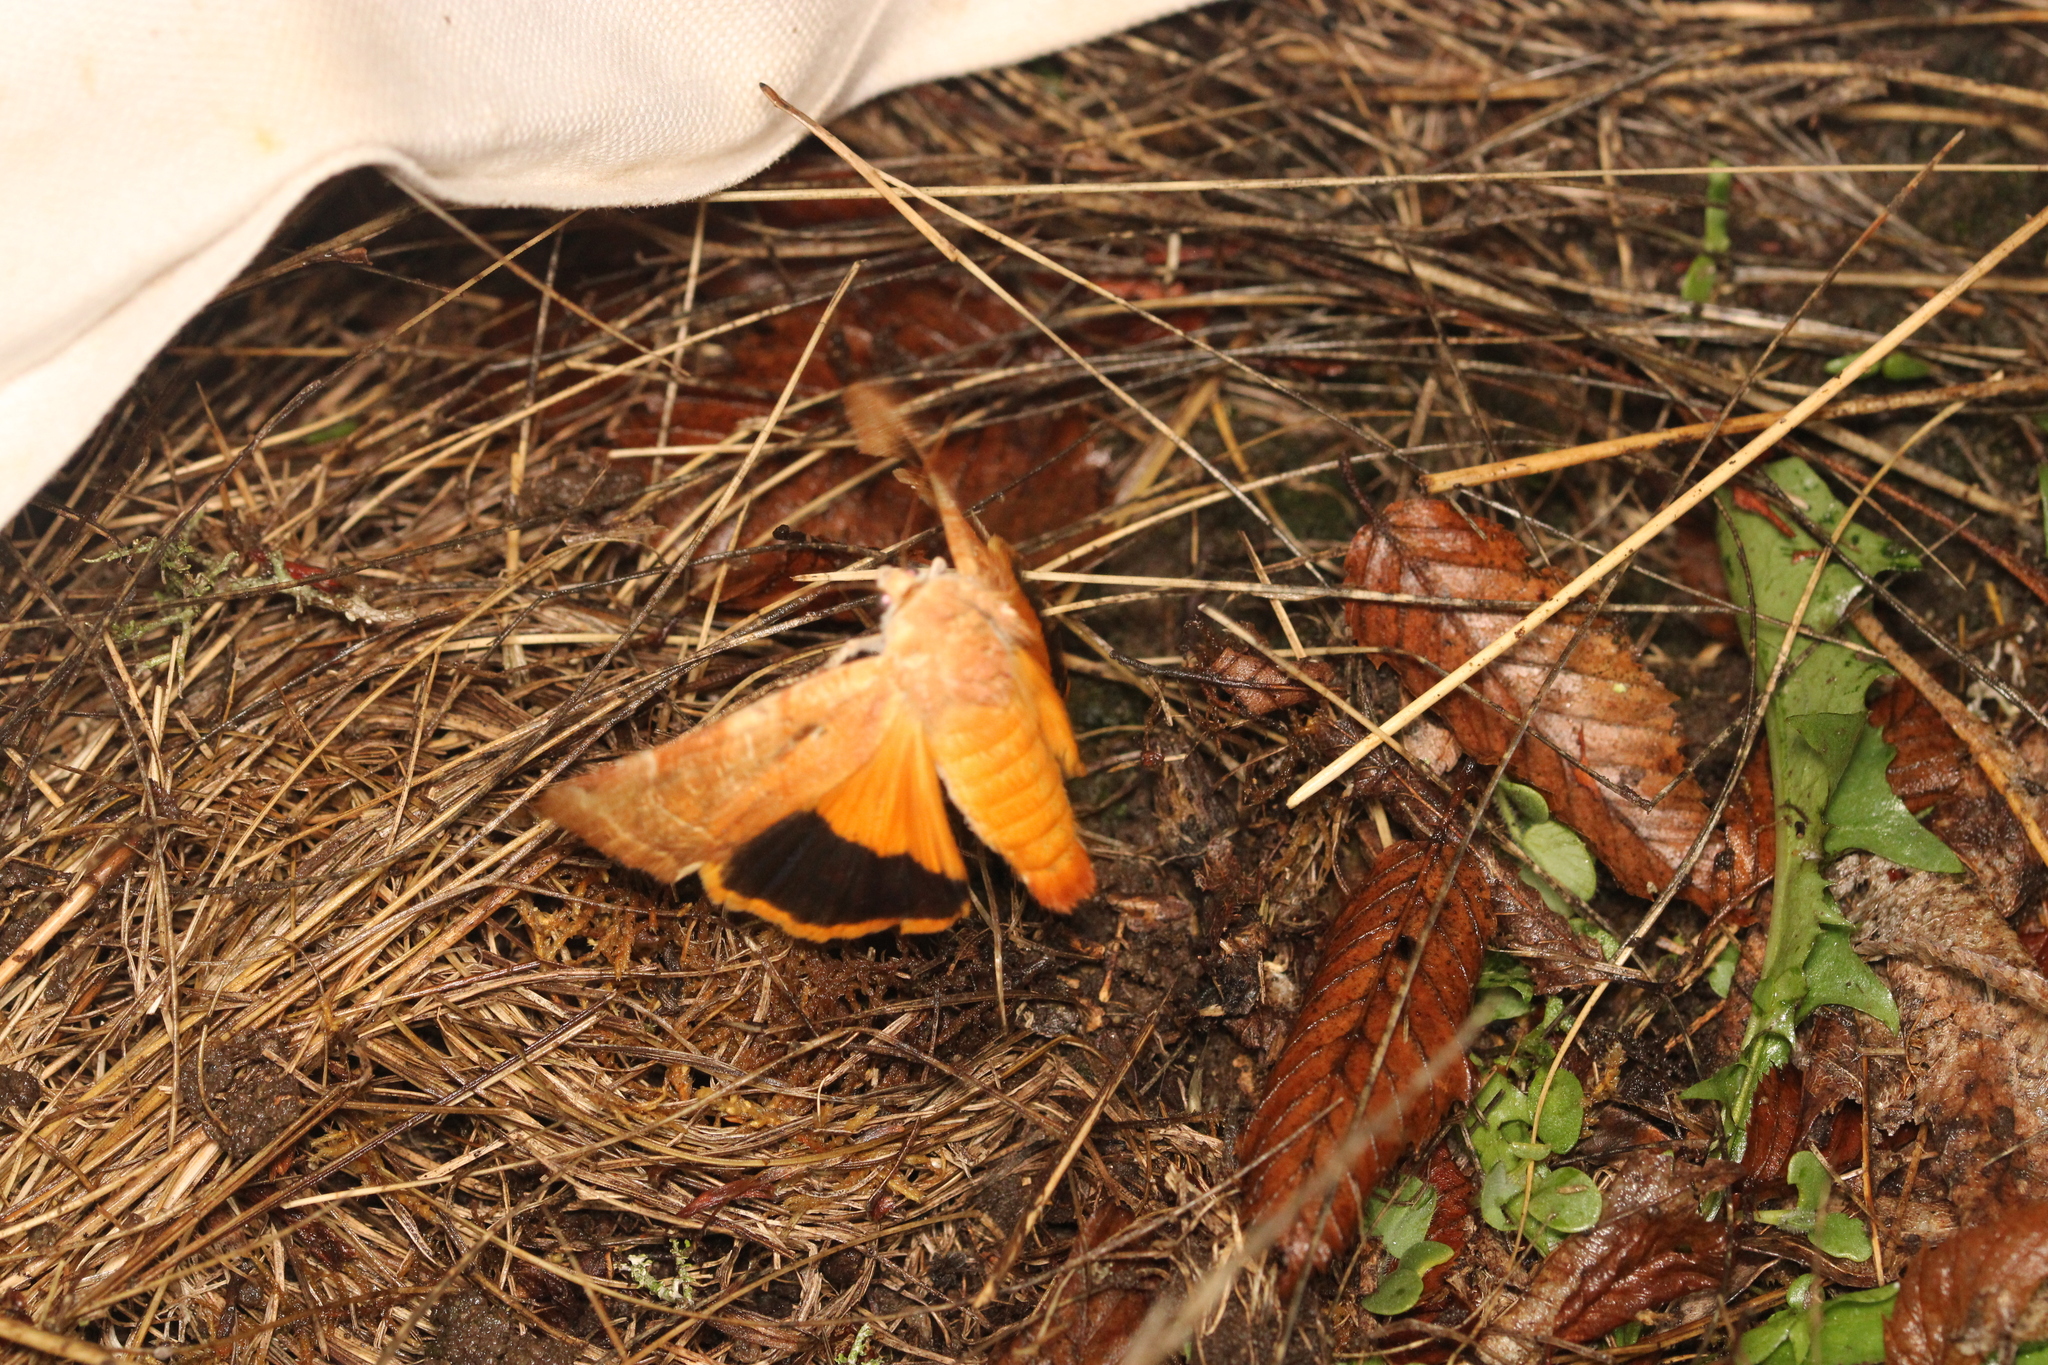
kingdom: Animalia
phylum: Arthropoda
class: Insecta
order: Lepidoptera
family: Noctuidae
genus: Noctua
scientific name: Noctua fimbriata
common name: Broad-bordered yellow underwing
